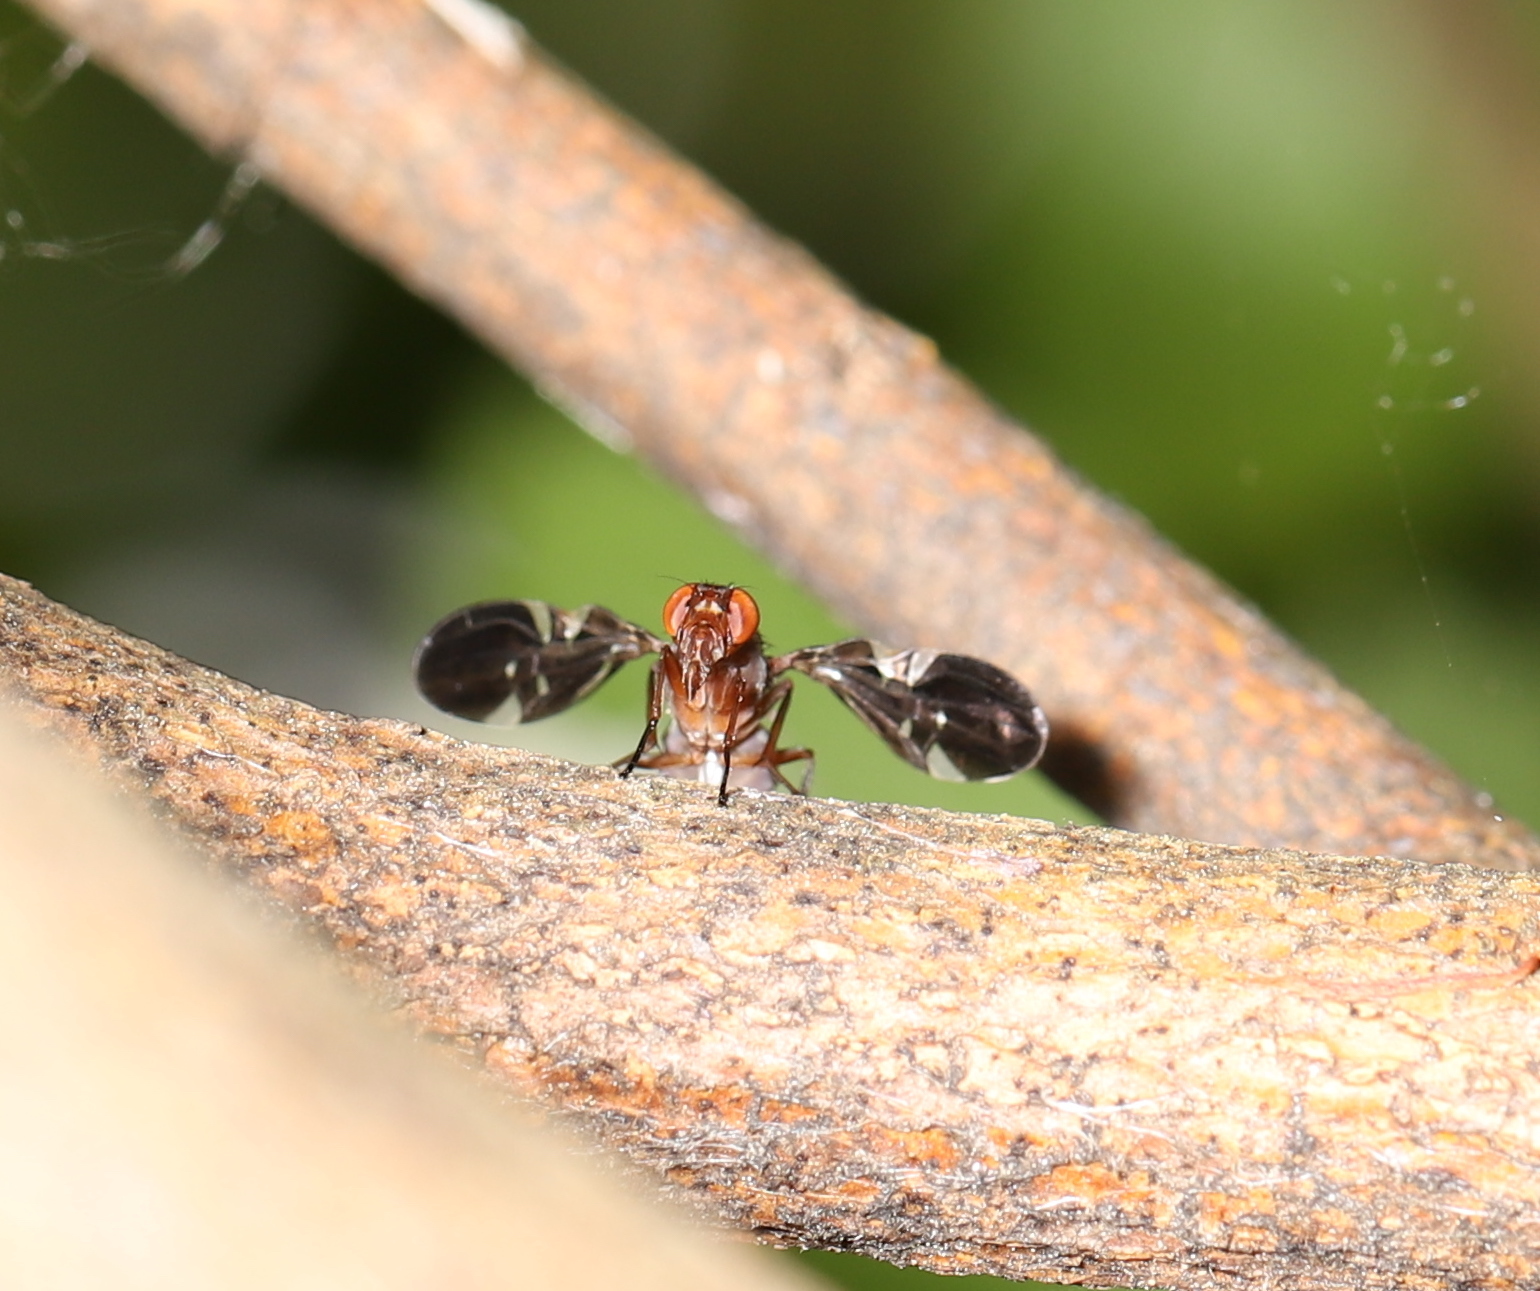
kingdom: Animalia
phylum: Arthropoda
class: Insecta
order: Diptera
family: Ulidiidae
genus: Delphinia
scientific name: Delphinia picta
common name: Common picture-winged fly
